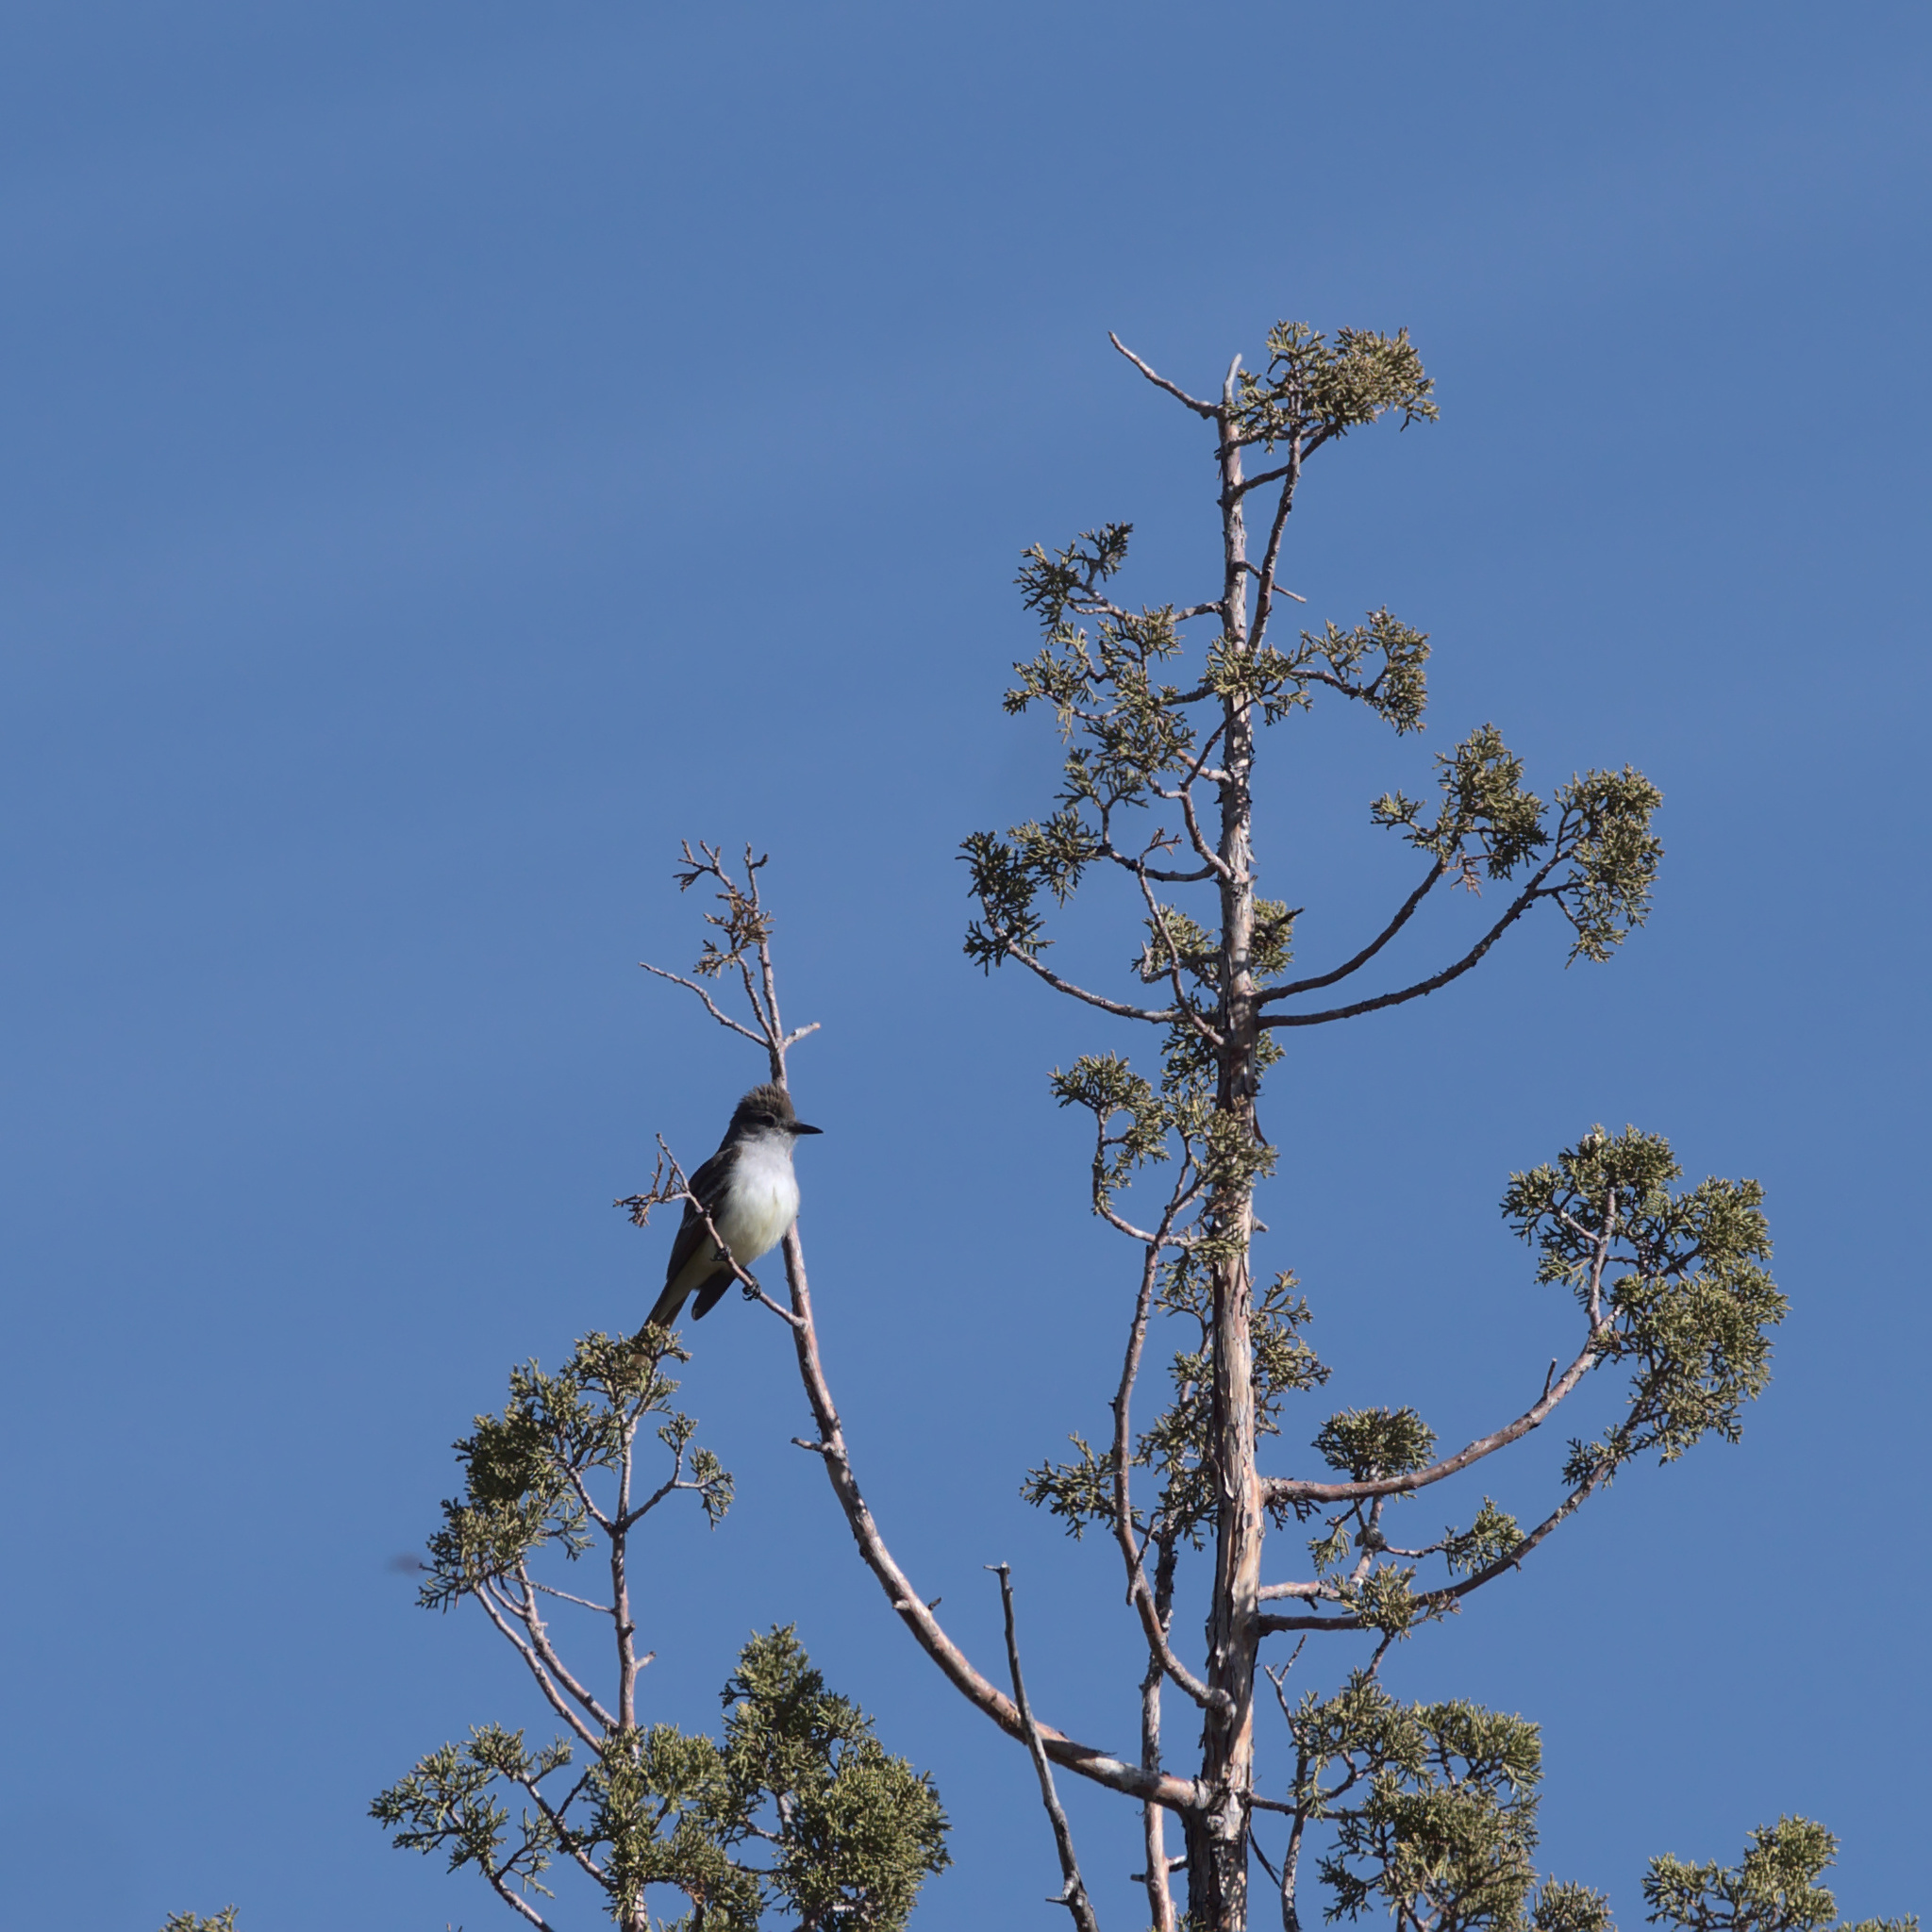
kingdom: Animalia
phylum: Chordata
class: Aves
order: Passeriformes
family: Tyrannidae
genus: Myiarchus
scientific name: Myiarchus cinerascens
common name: Ash-throated flycatcher
